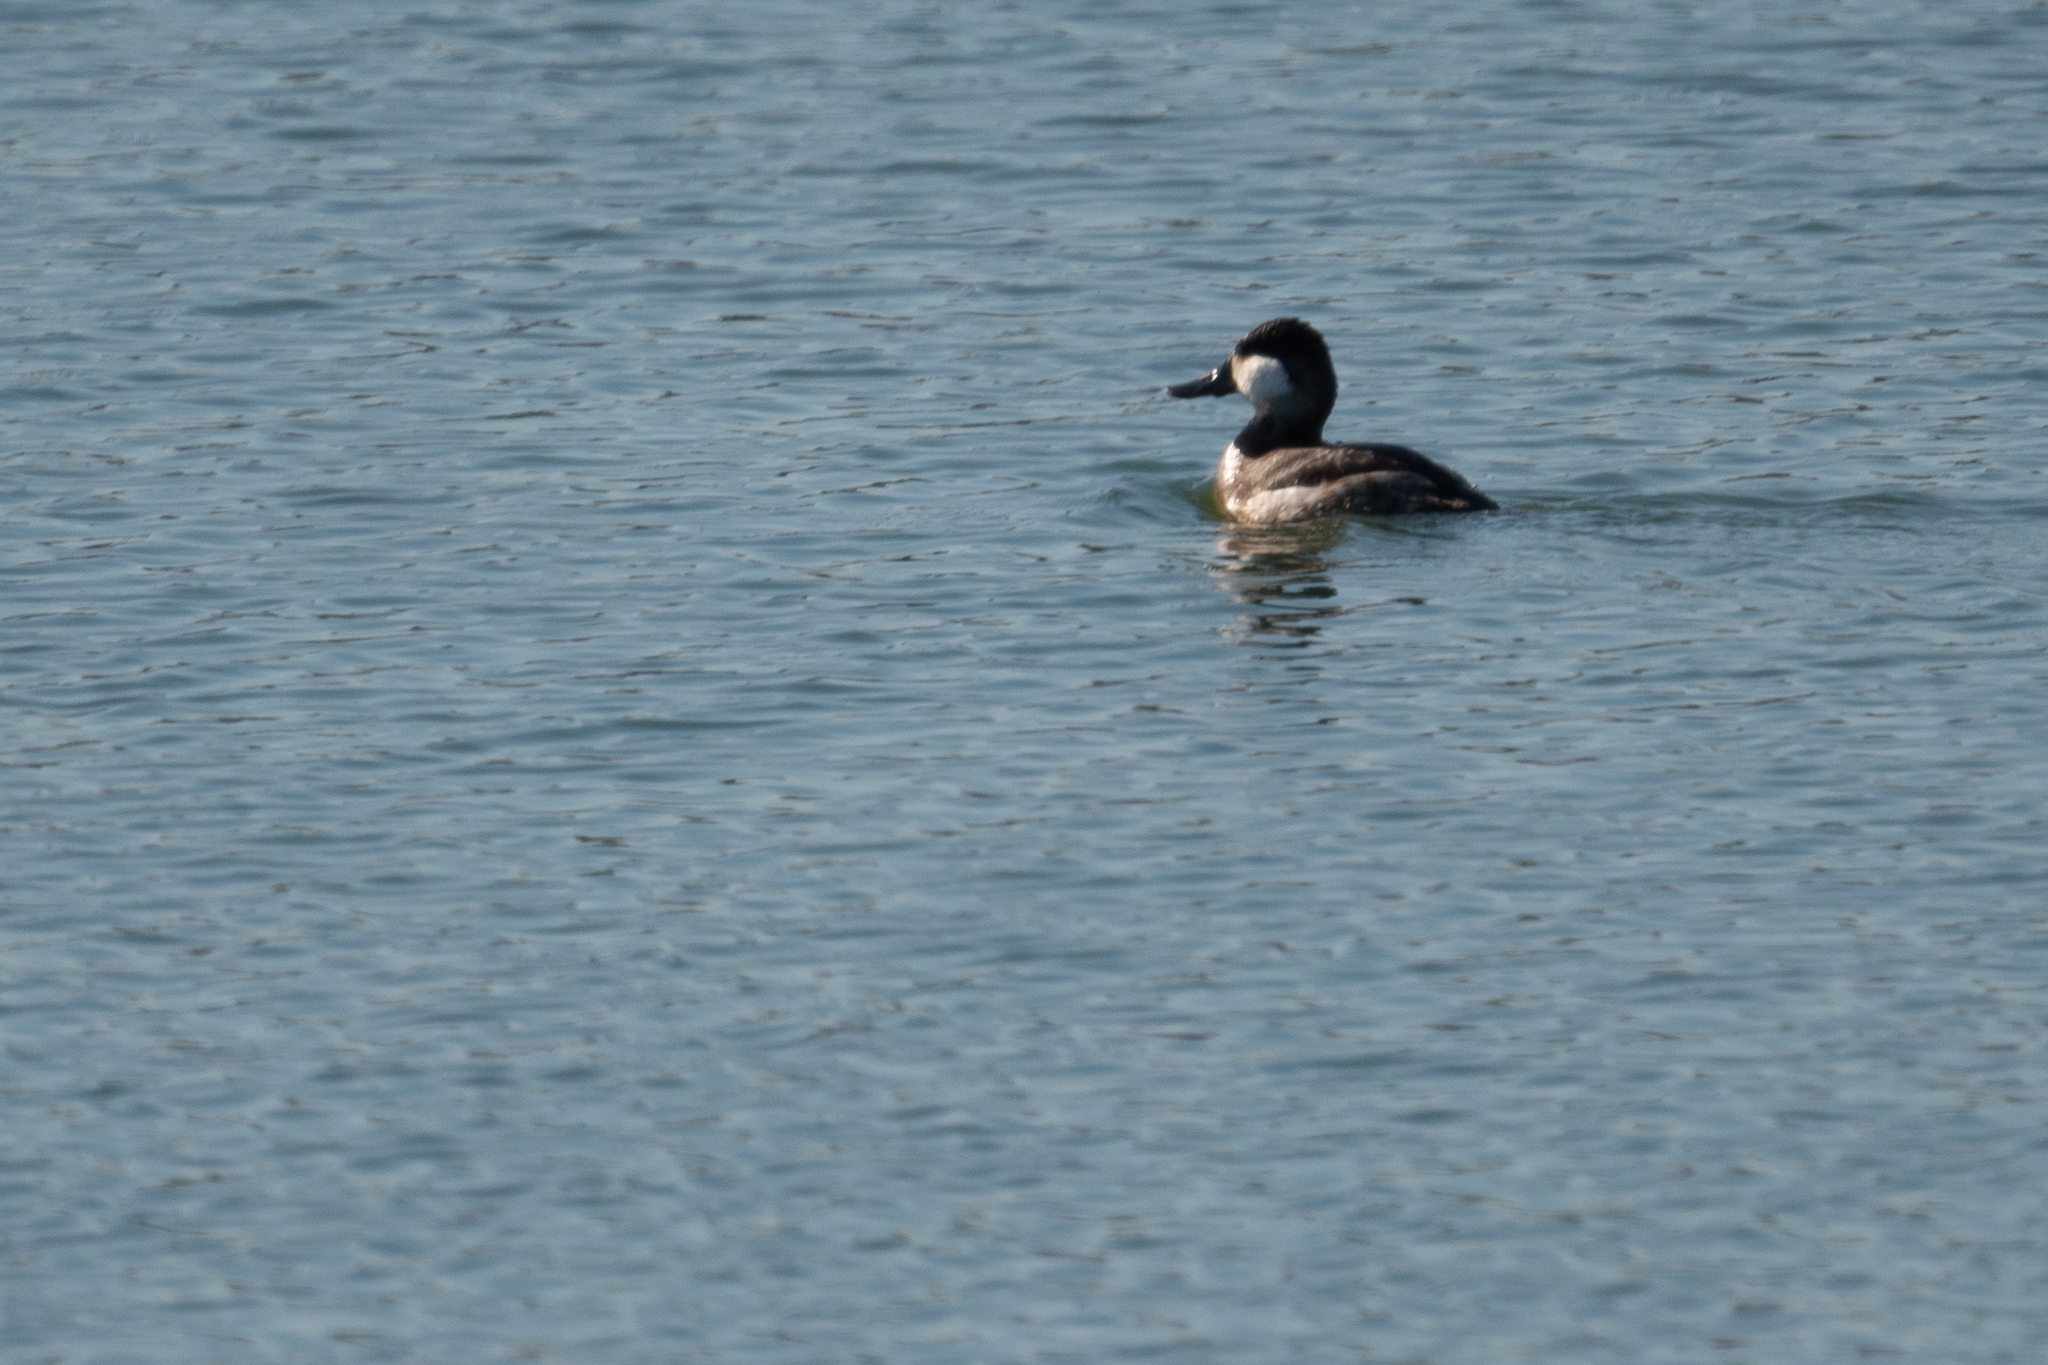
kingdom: Animalia
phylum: Chordata
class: Aves
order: Anseriformes
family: Anatidae
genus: Oxyura
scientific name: Oxyura jamaicensis
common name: Ruddy duck
